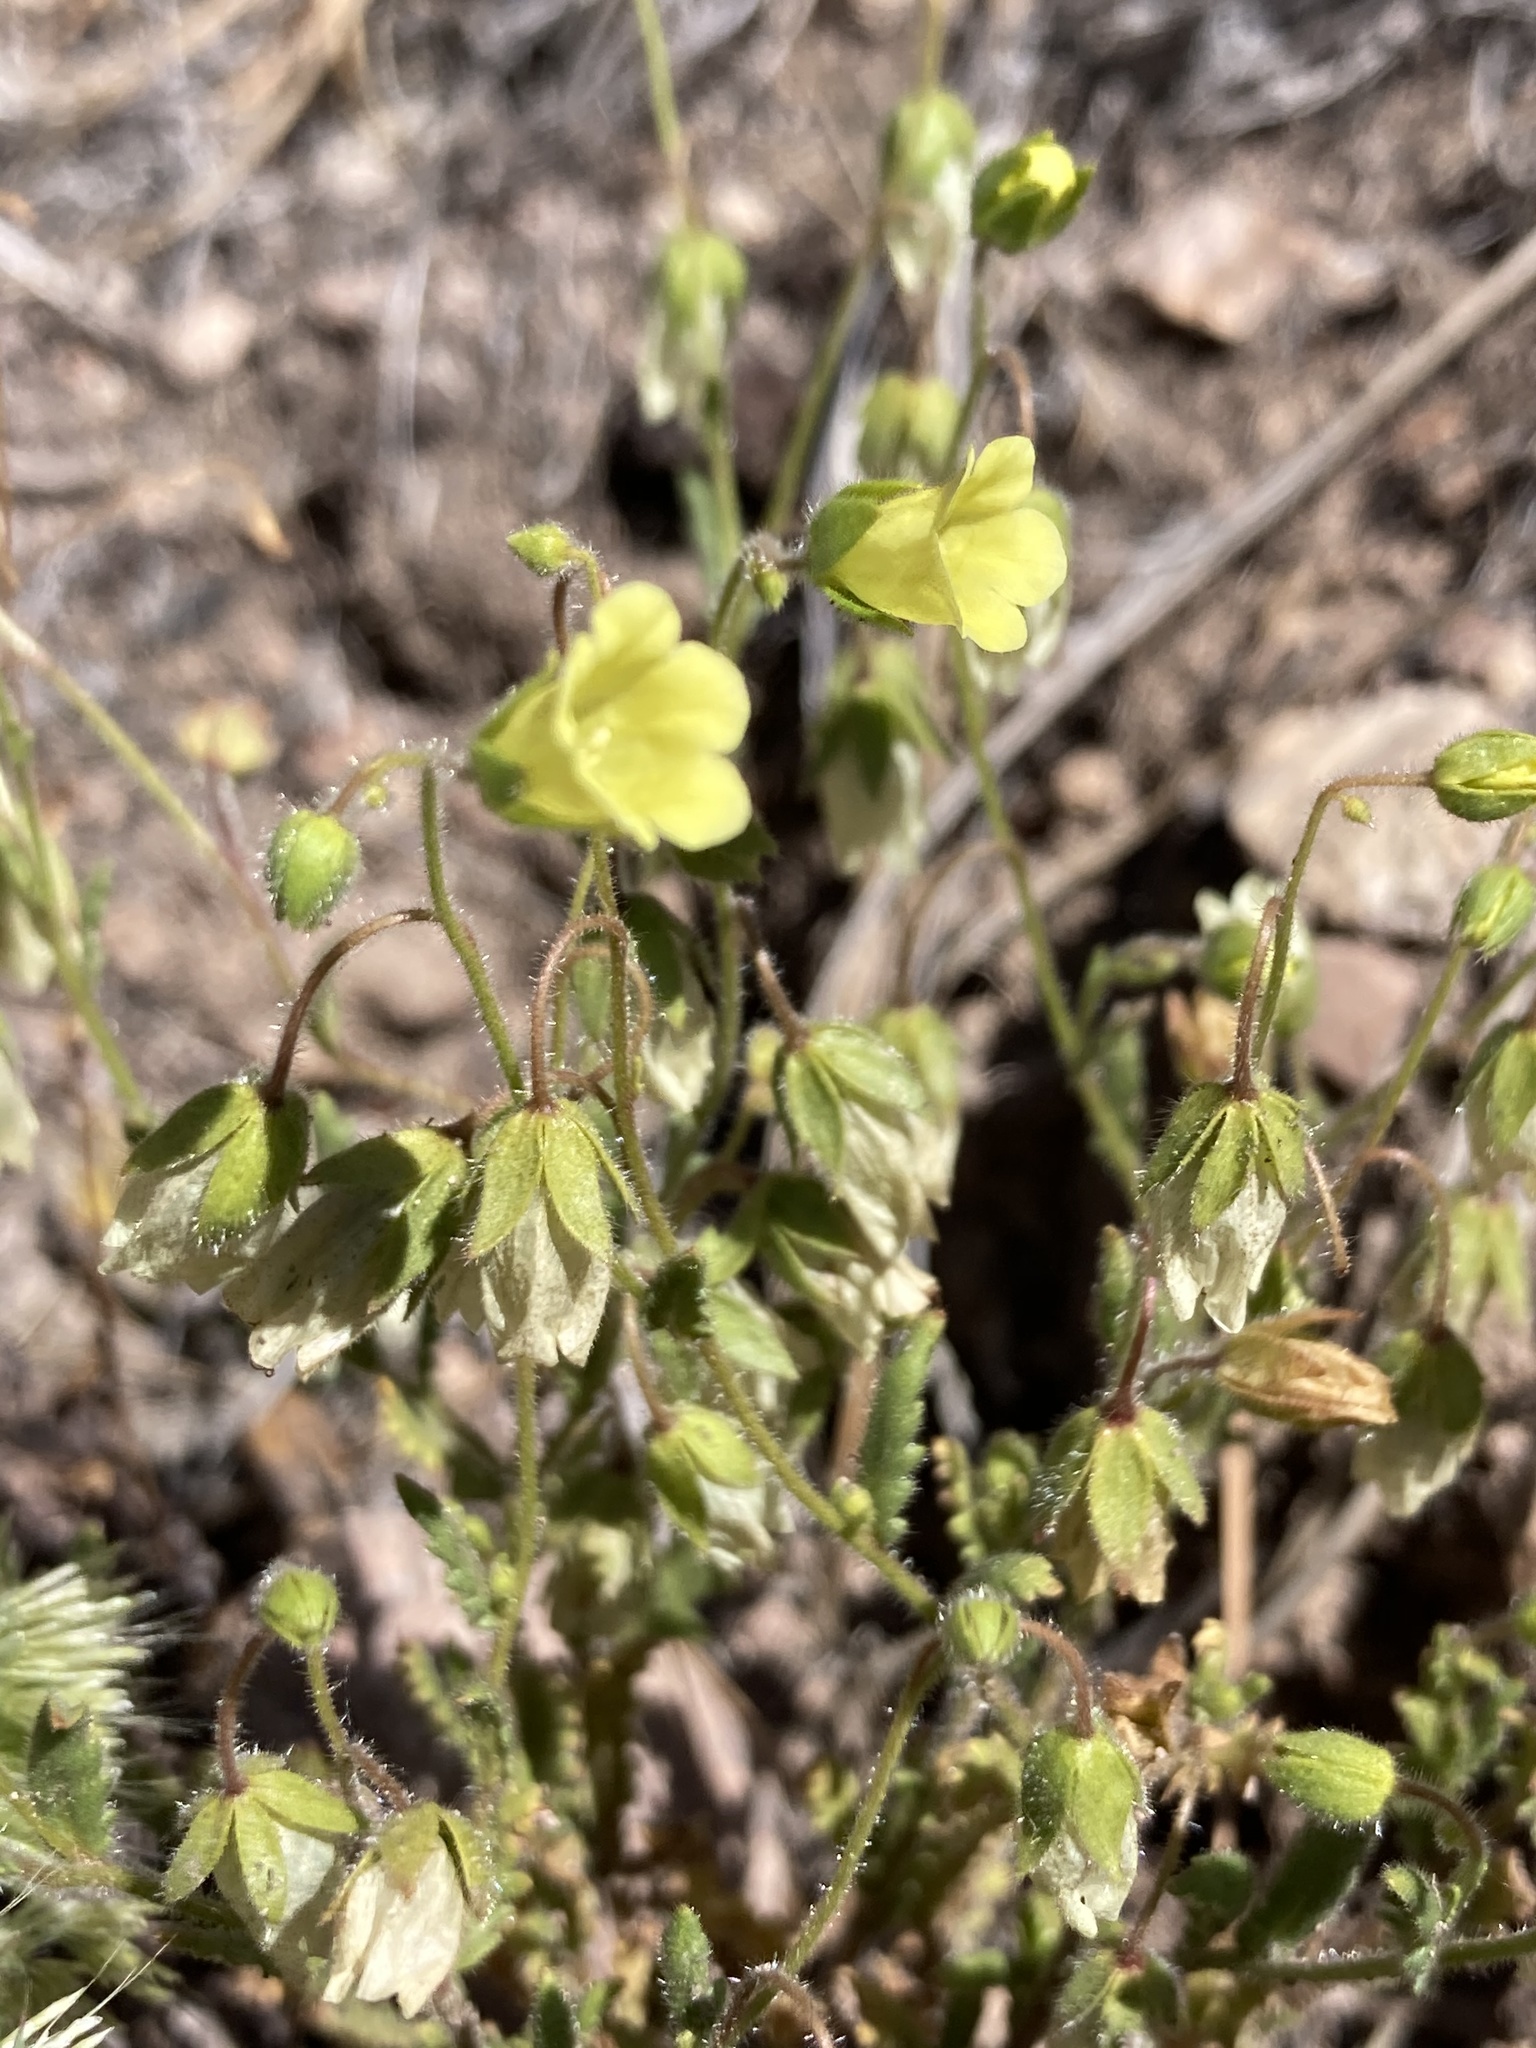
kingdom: Plantae
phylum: Tracheophyta
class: Magnoliopsida
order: Boraginales
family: Hydrophyllaceae
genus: Emmenanthe
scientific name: Emmenanthe penduliflora
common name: Whispering-bells
